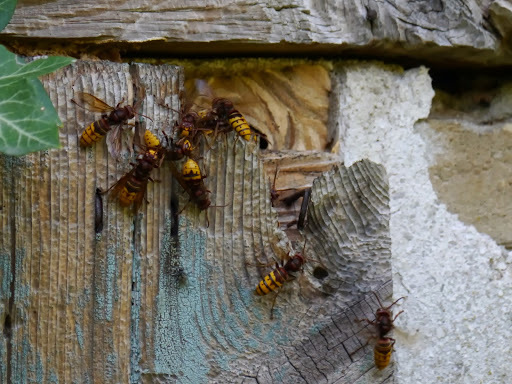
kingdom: Animalia
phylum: Arthropoda
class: Insecta
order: Hymenoptera
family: Vespidae
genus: Vespa
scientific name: Vespa crabro
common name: Hornet
